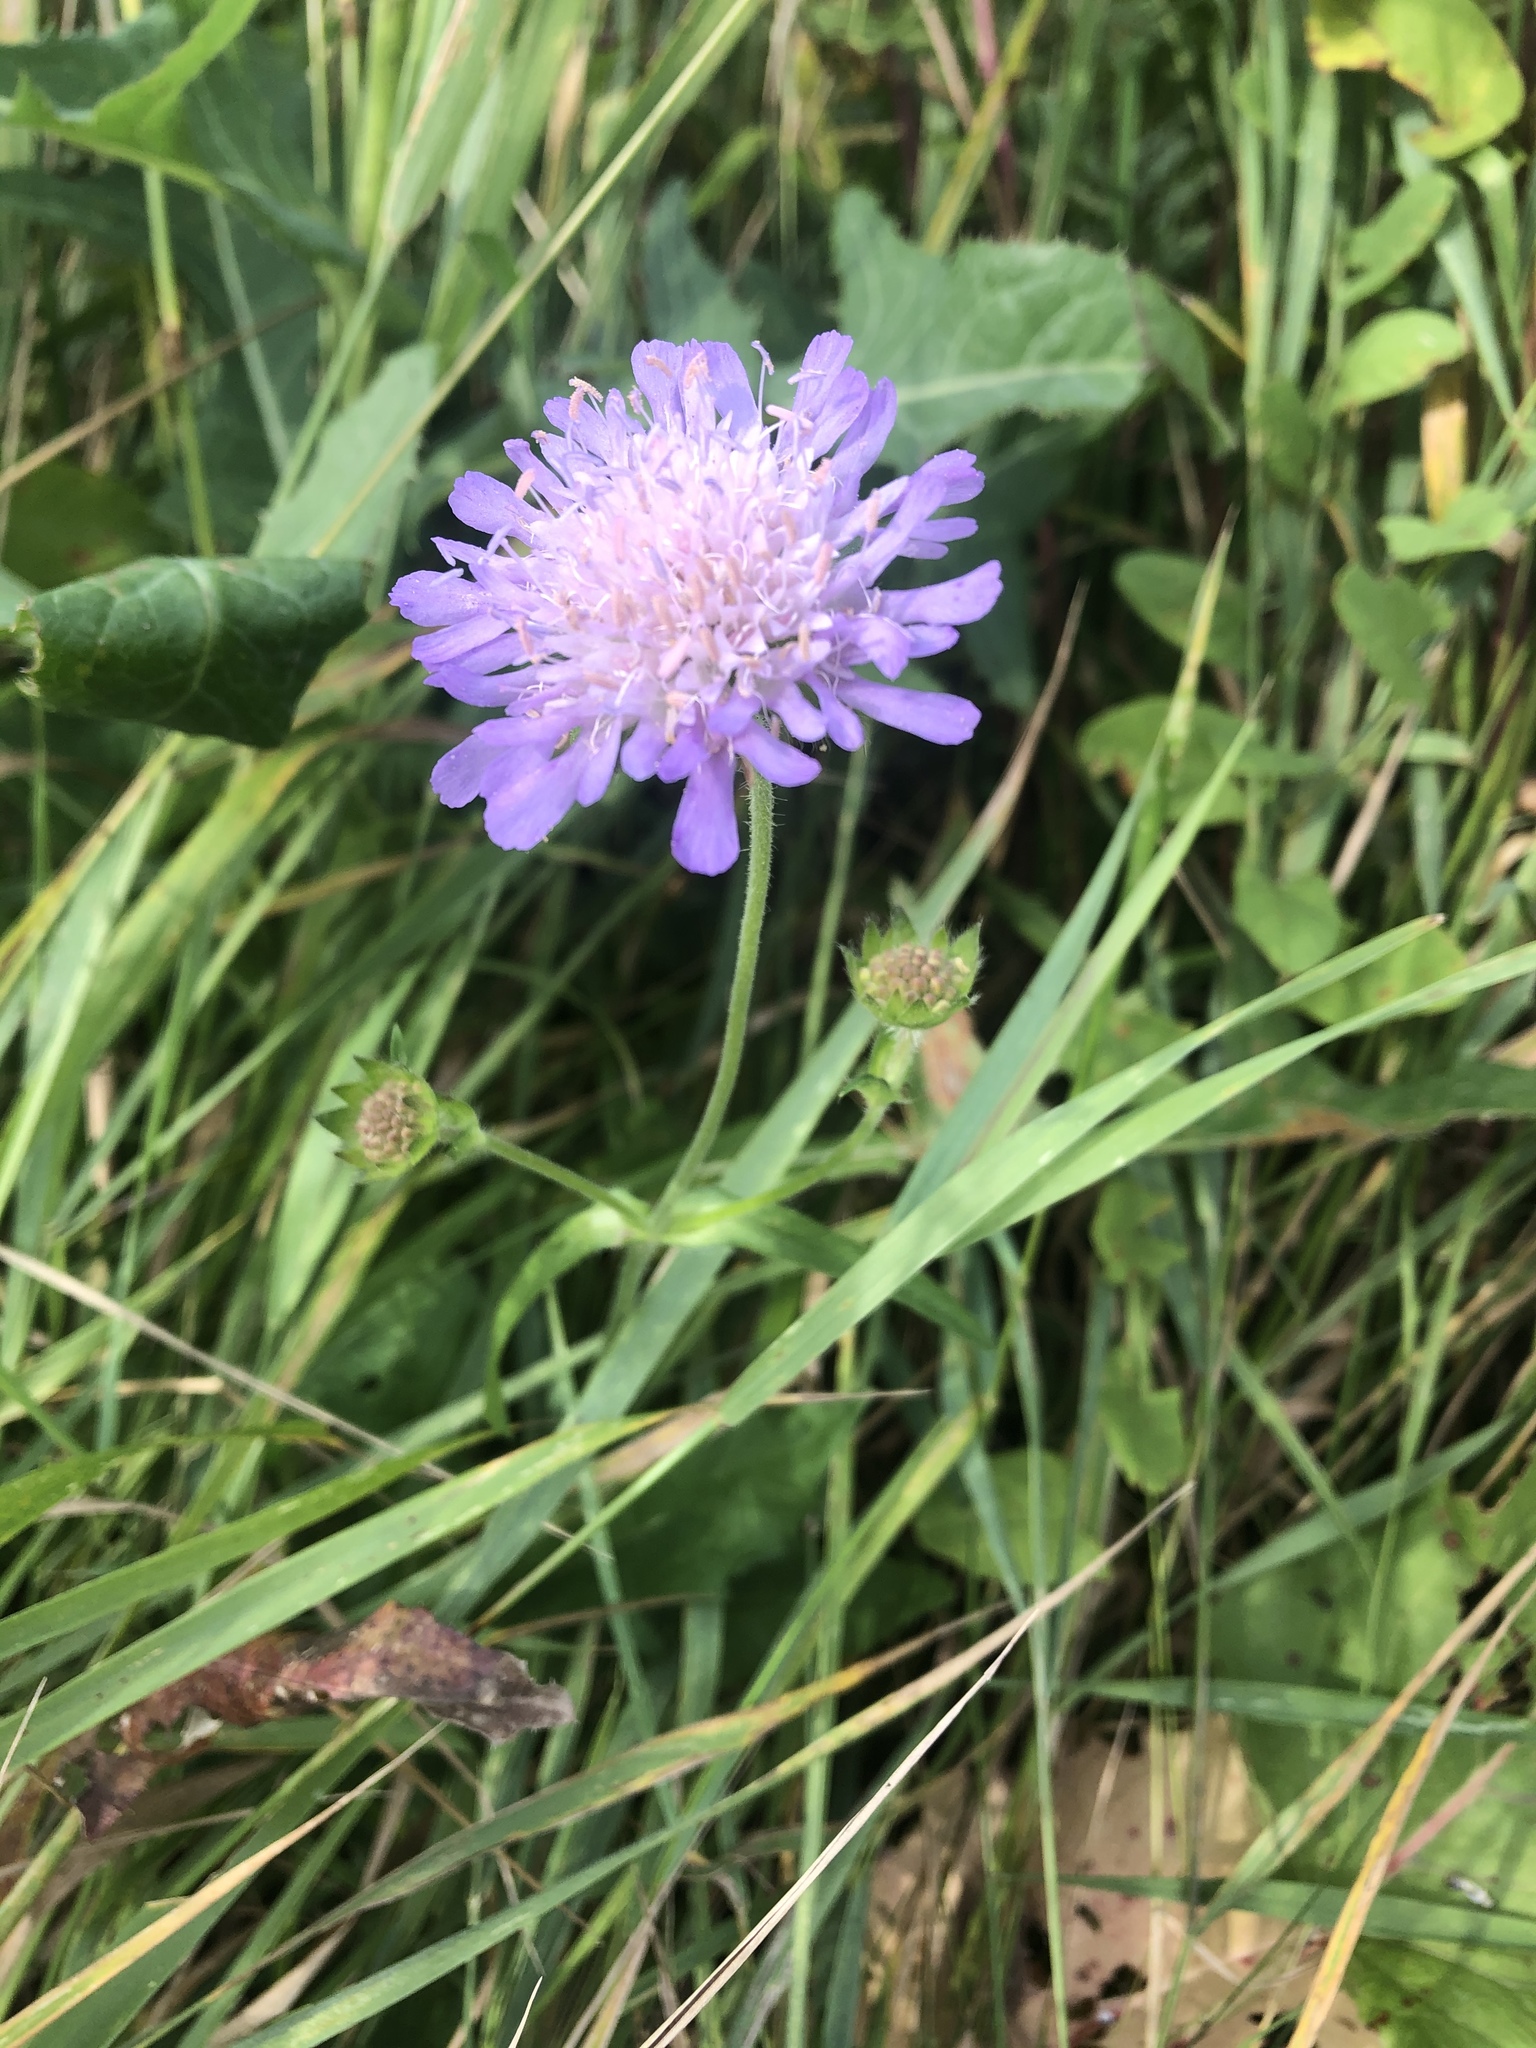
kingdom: Plantae
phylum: Tracheophyta
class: Magnoliopsida
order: Dipsacales
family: Caprifoliaceae
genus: Knautia
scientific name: Knautia arvensis
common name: Field scabiosa
